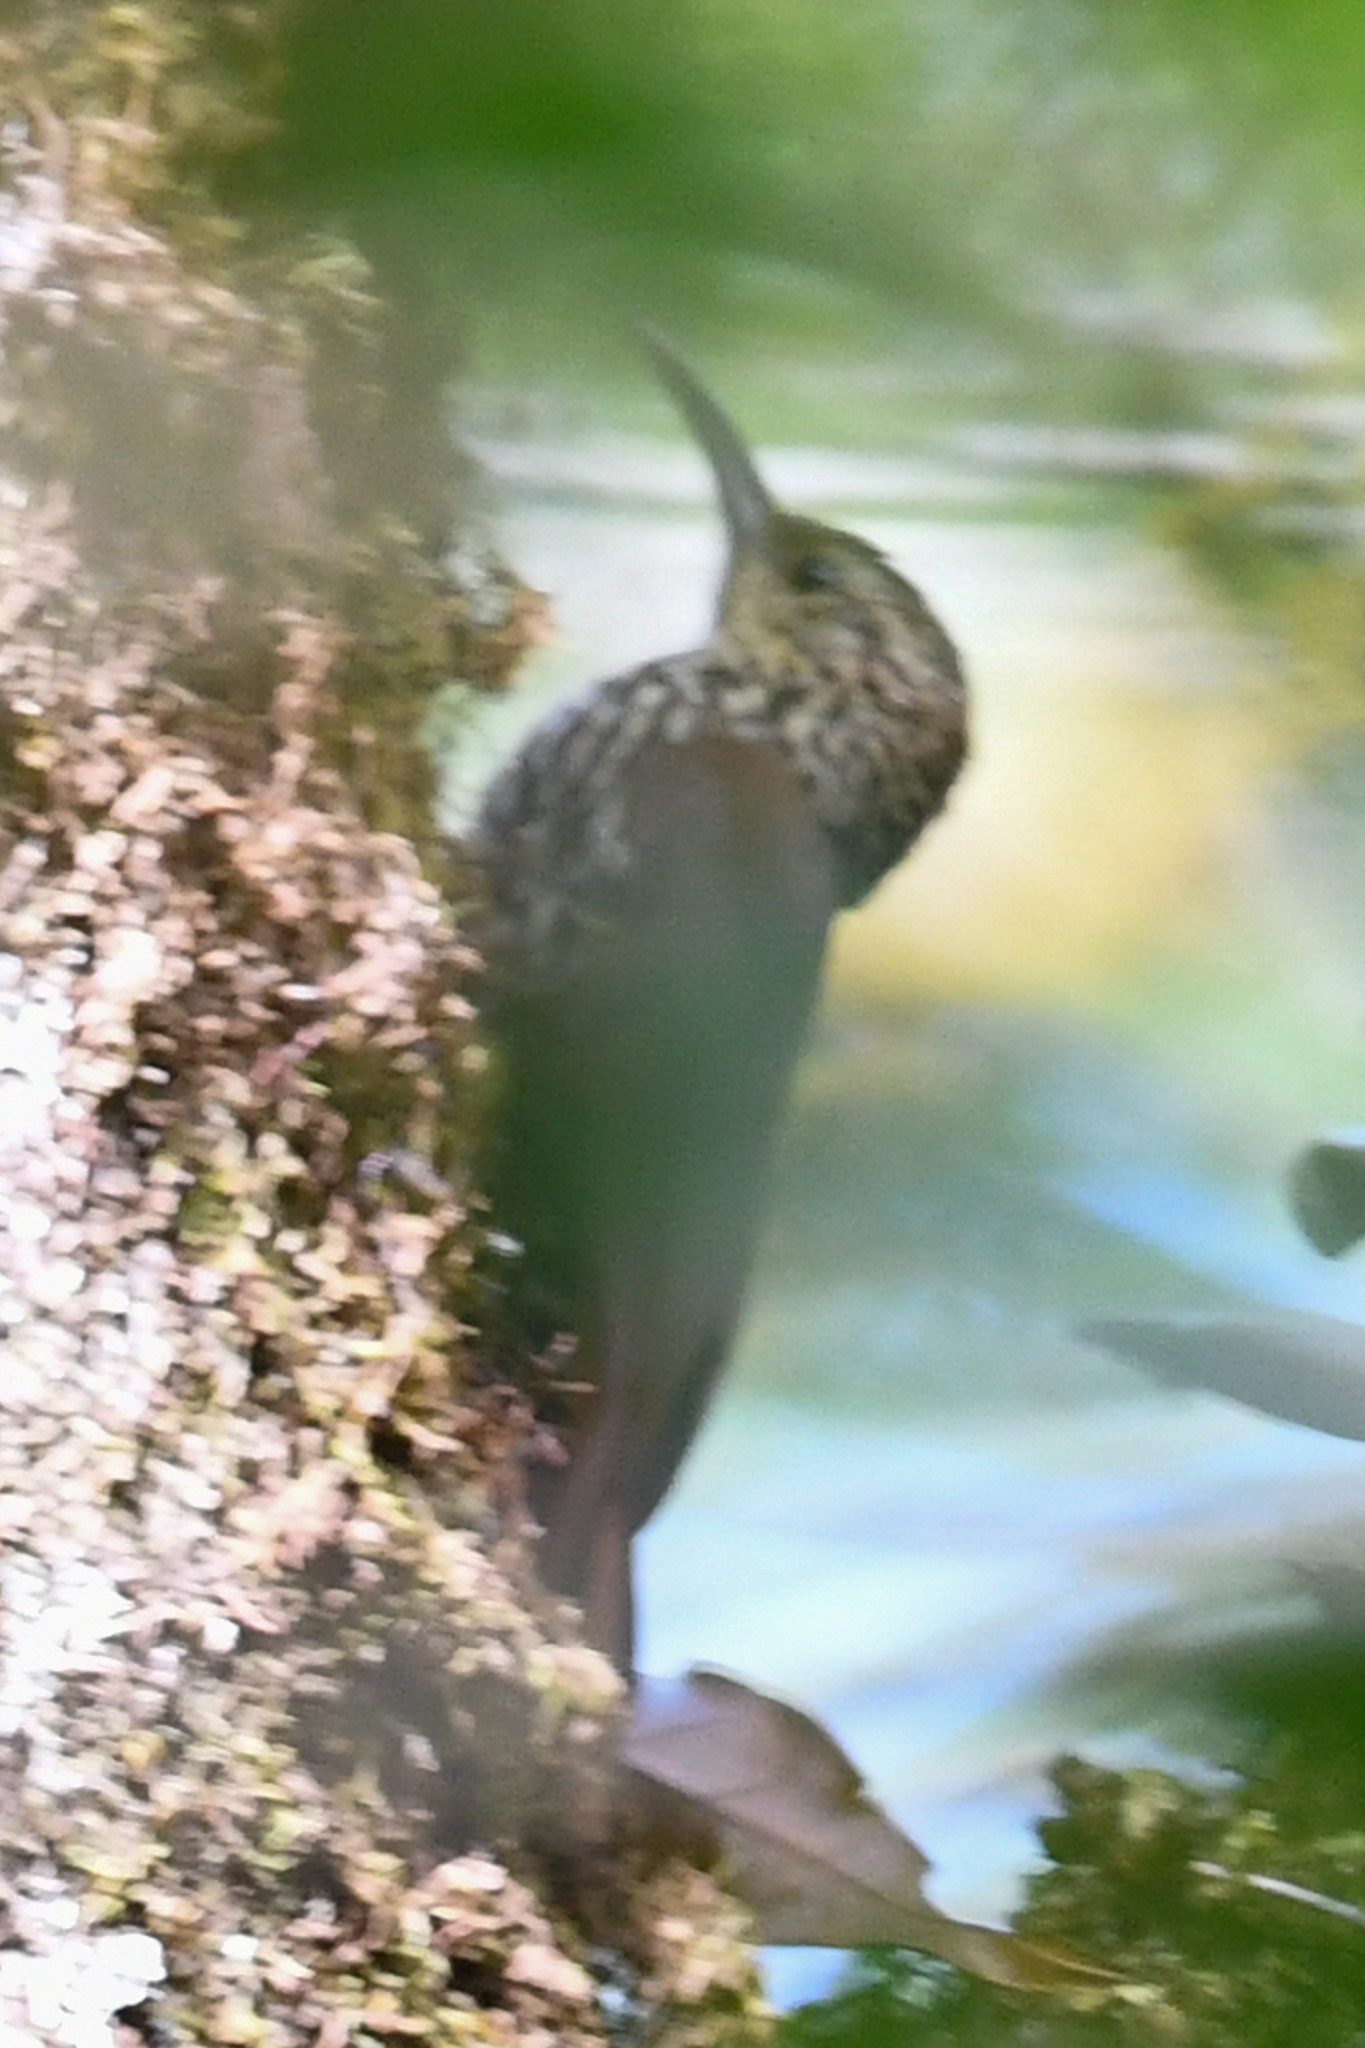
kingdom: Animalia
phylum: Chordata
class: Aves
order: Passeriformes
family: Furnariidae
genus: Lepidocolaptes
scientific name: Lepidocolaptes affinis
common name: Spot-crowned woodcreeper
